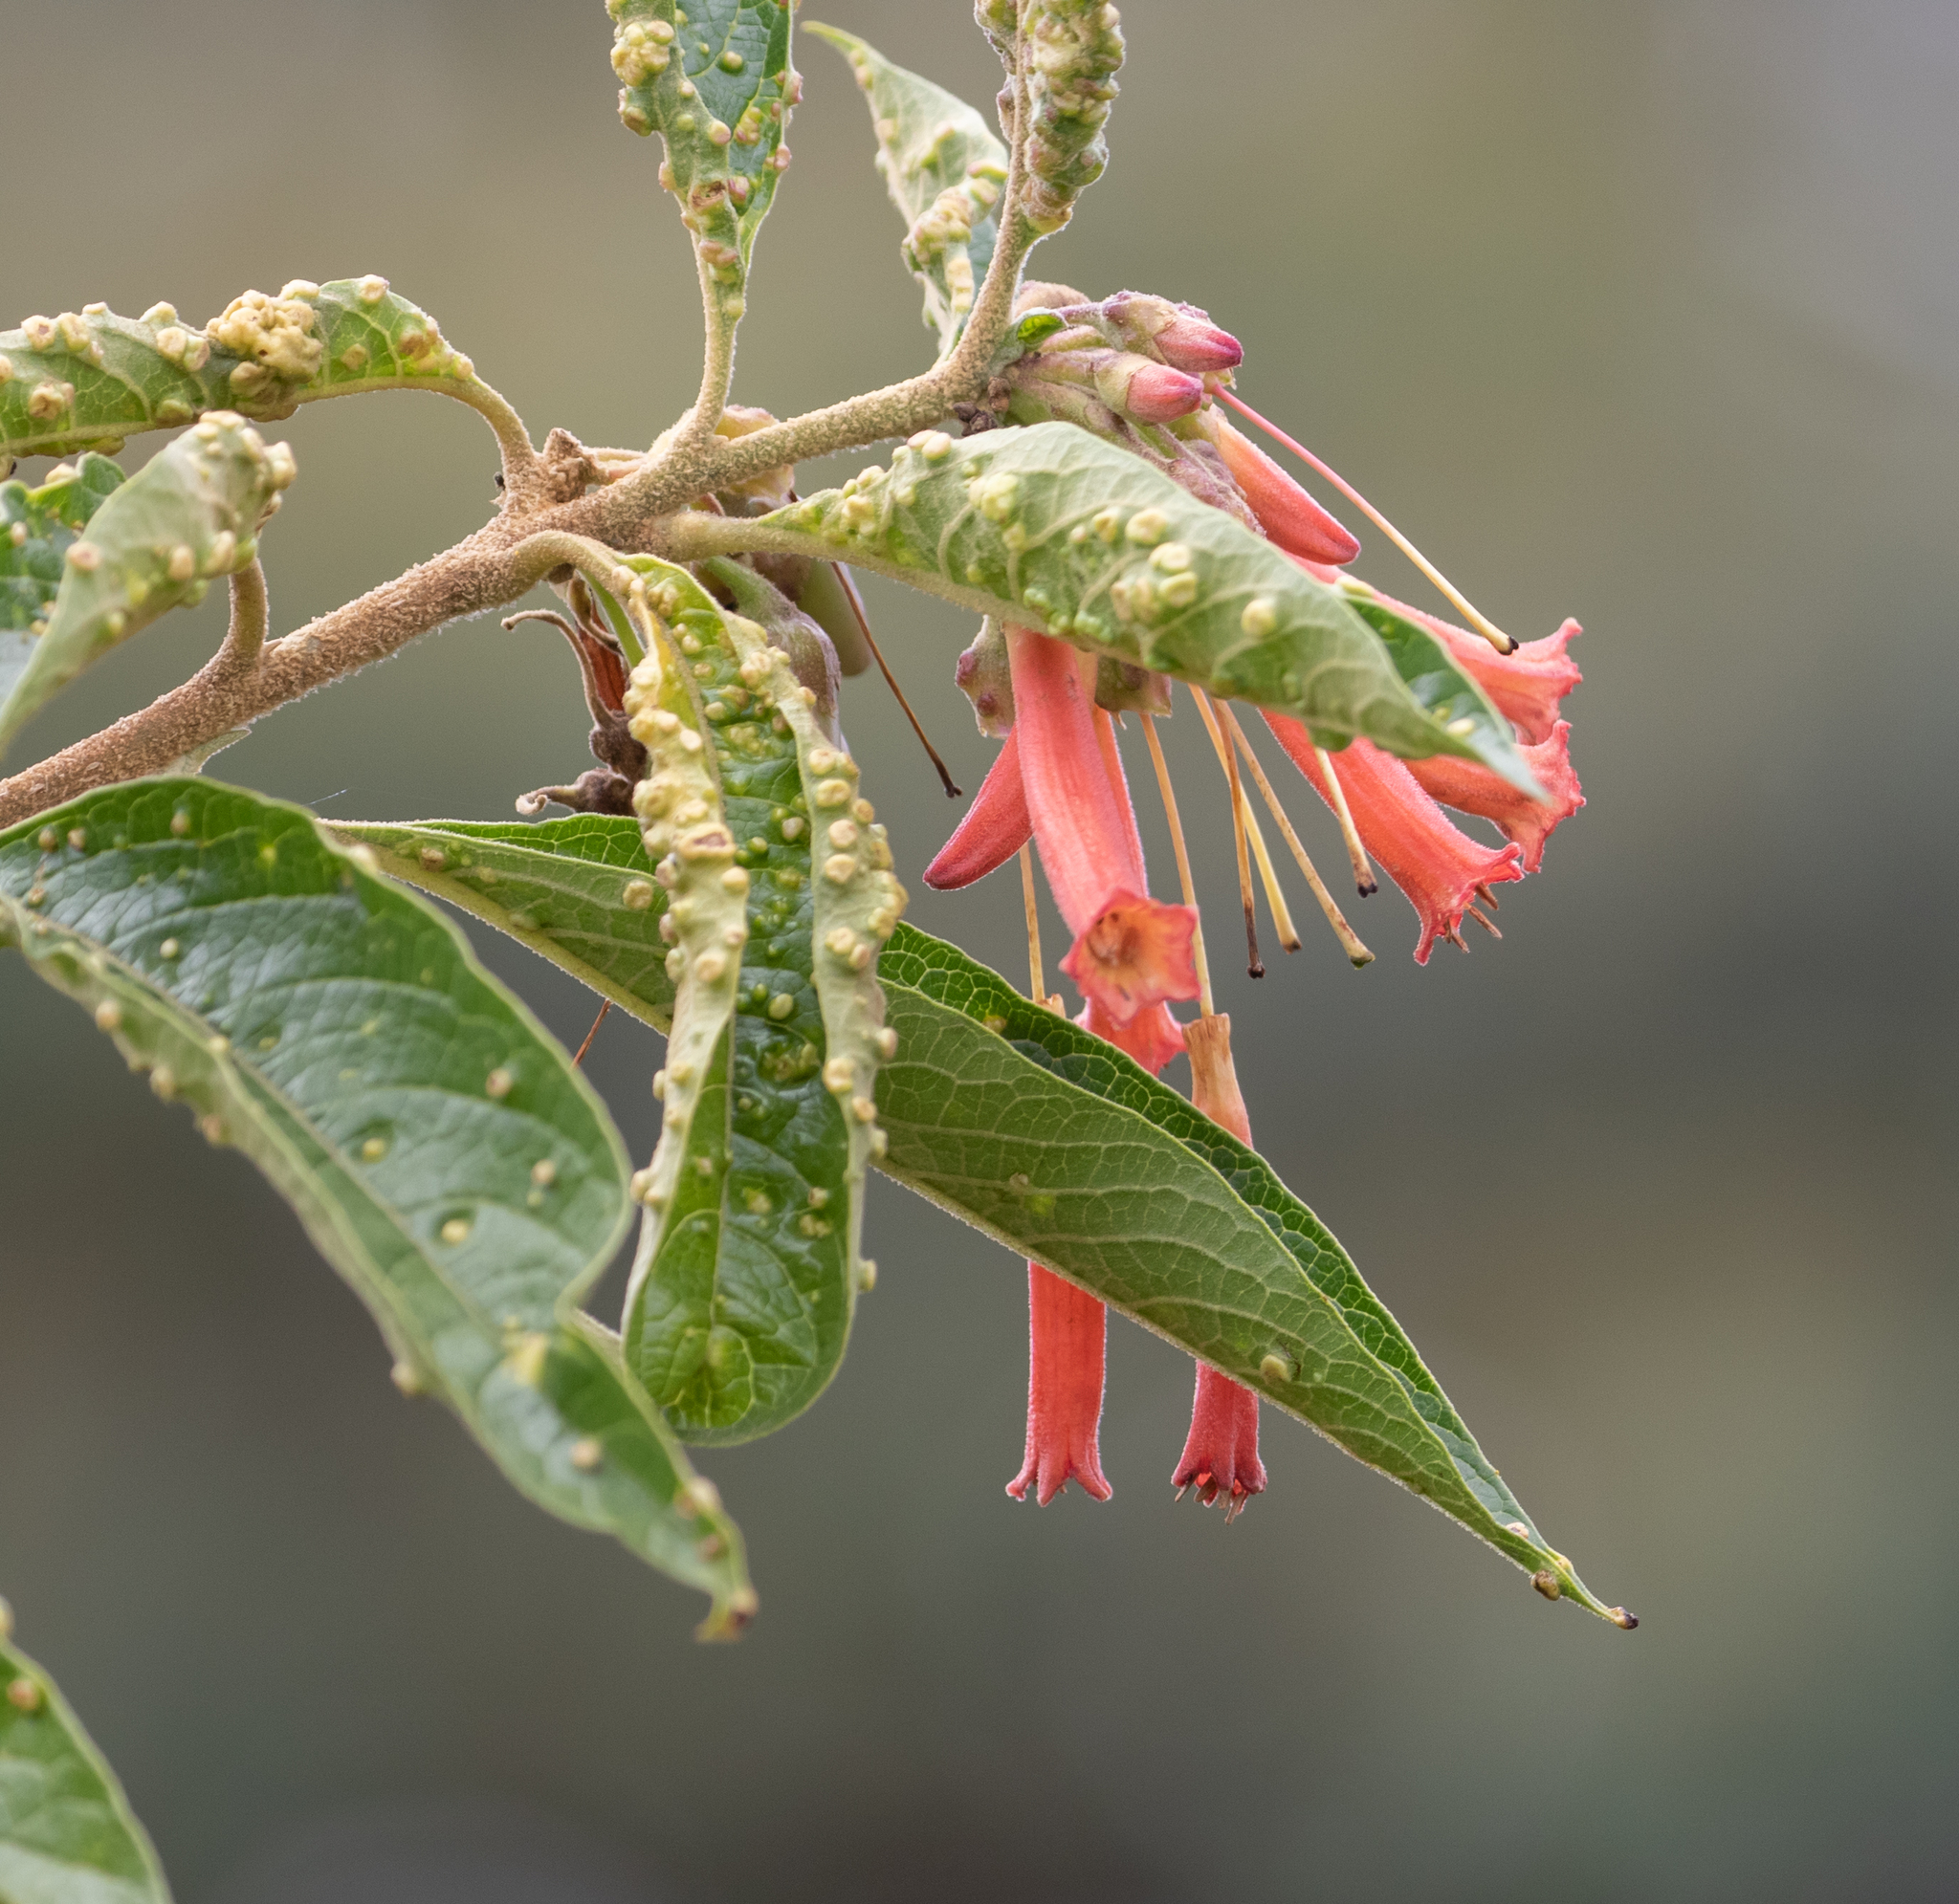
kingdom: Plantae
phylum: Tracheophyta
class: Magnoliopsida
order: Solanales
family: Solanaceae
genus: Iochroma
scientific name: Iochroma fuchsioides
